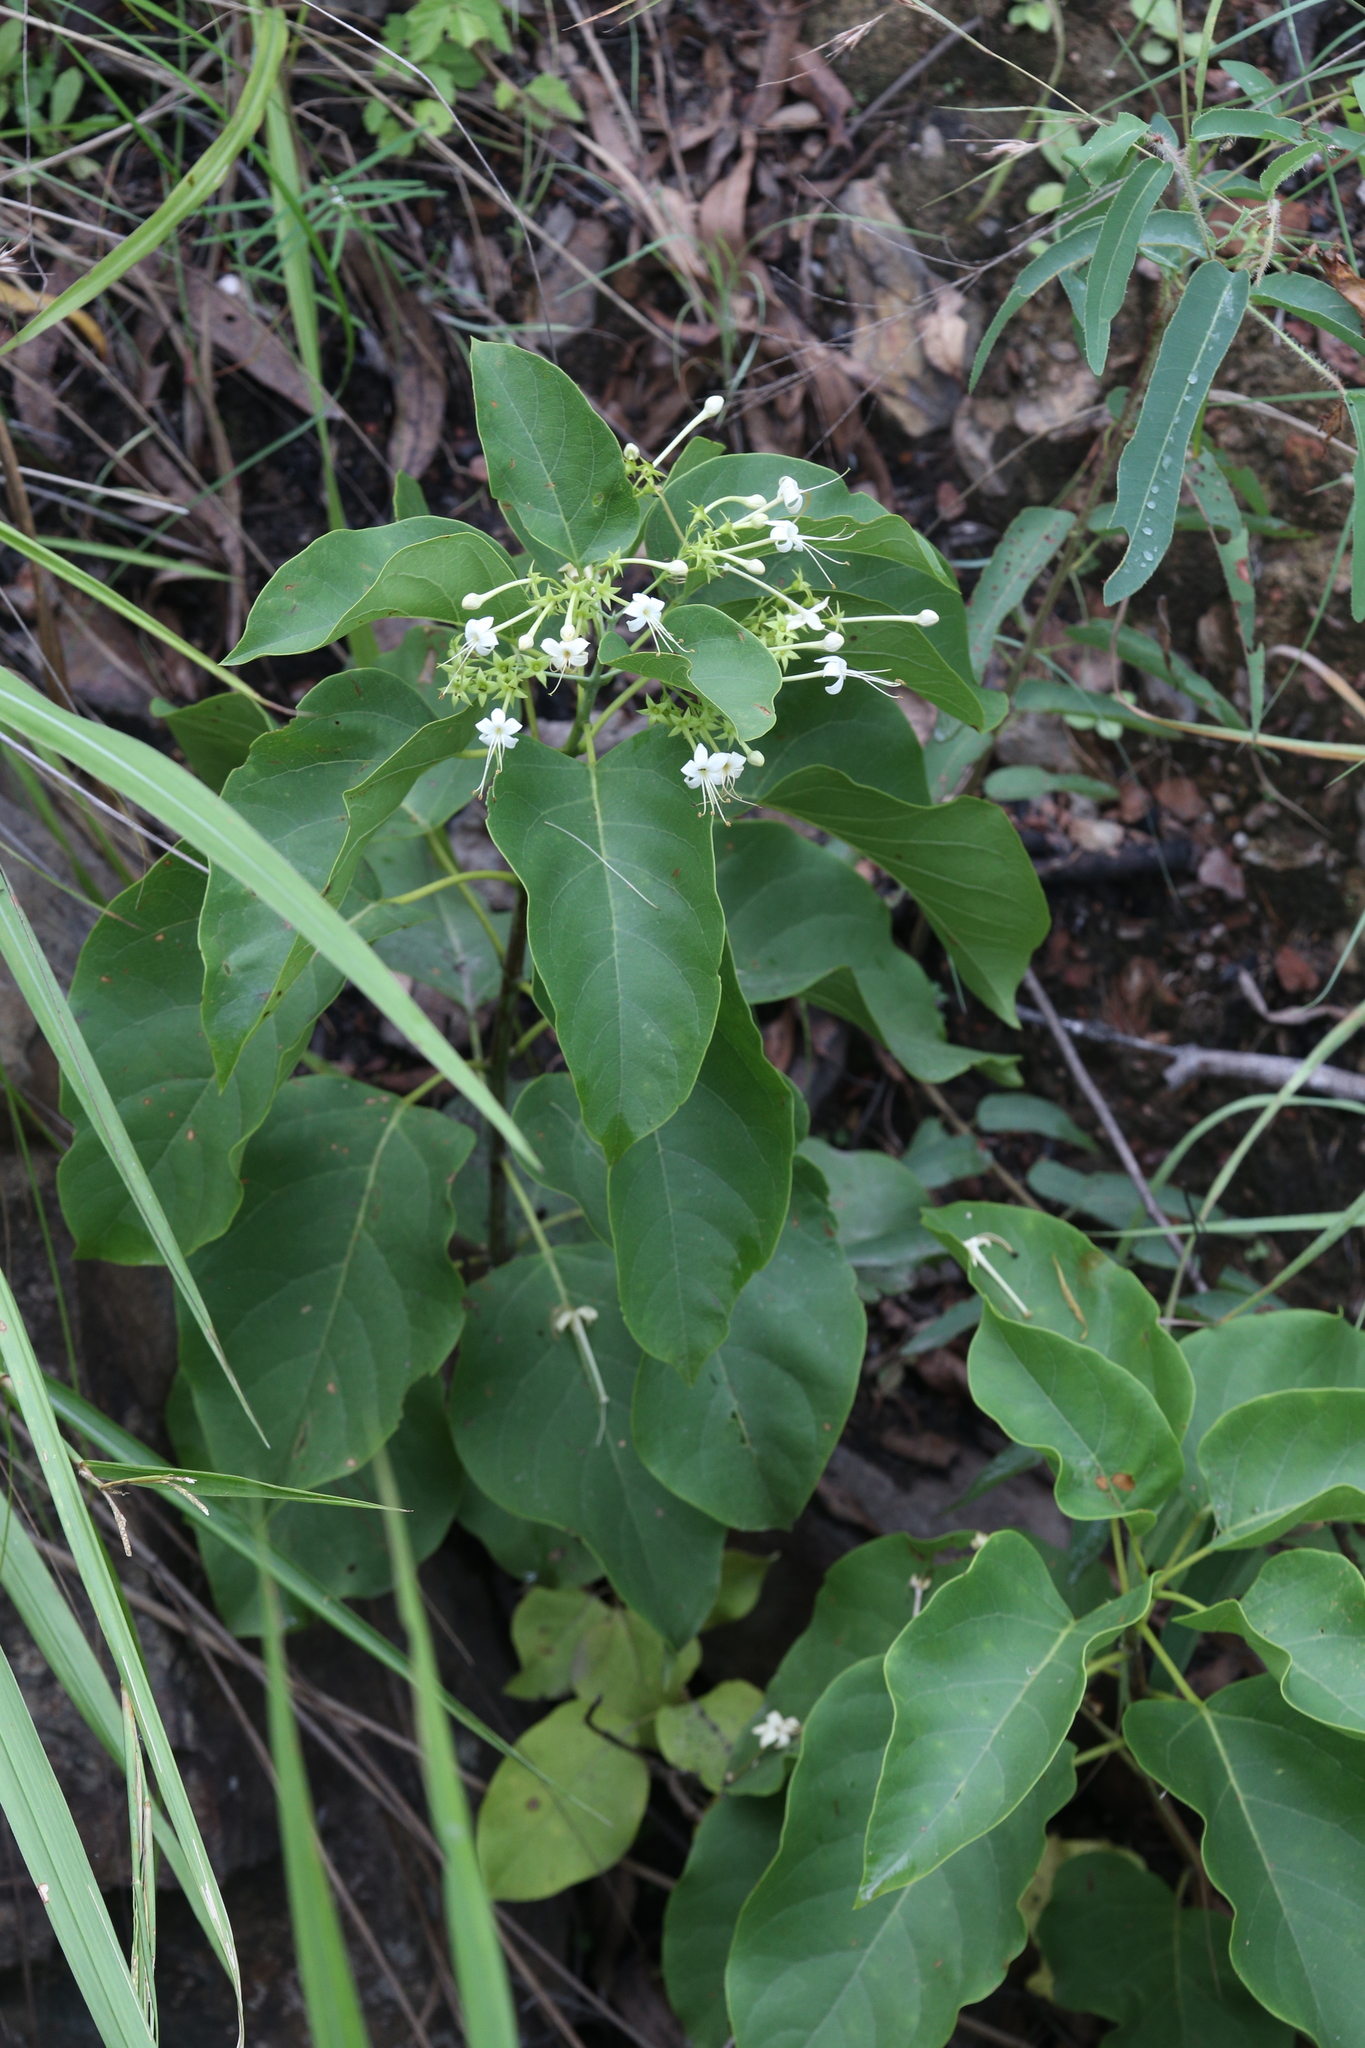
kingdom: Plantae
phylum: Tracheophyta
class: Magnoliopsida
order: Lamiales
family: Lamiaceae
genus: Clerodendrum
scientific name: Clerodendrum floribundum
